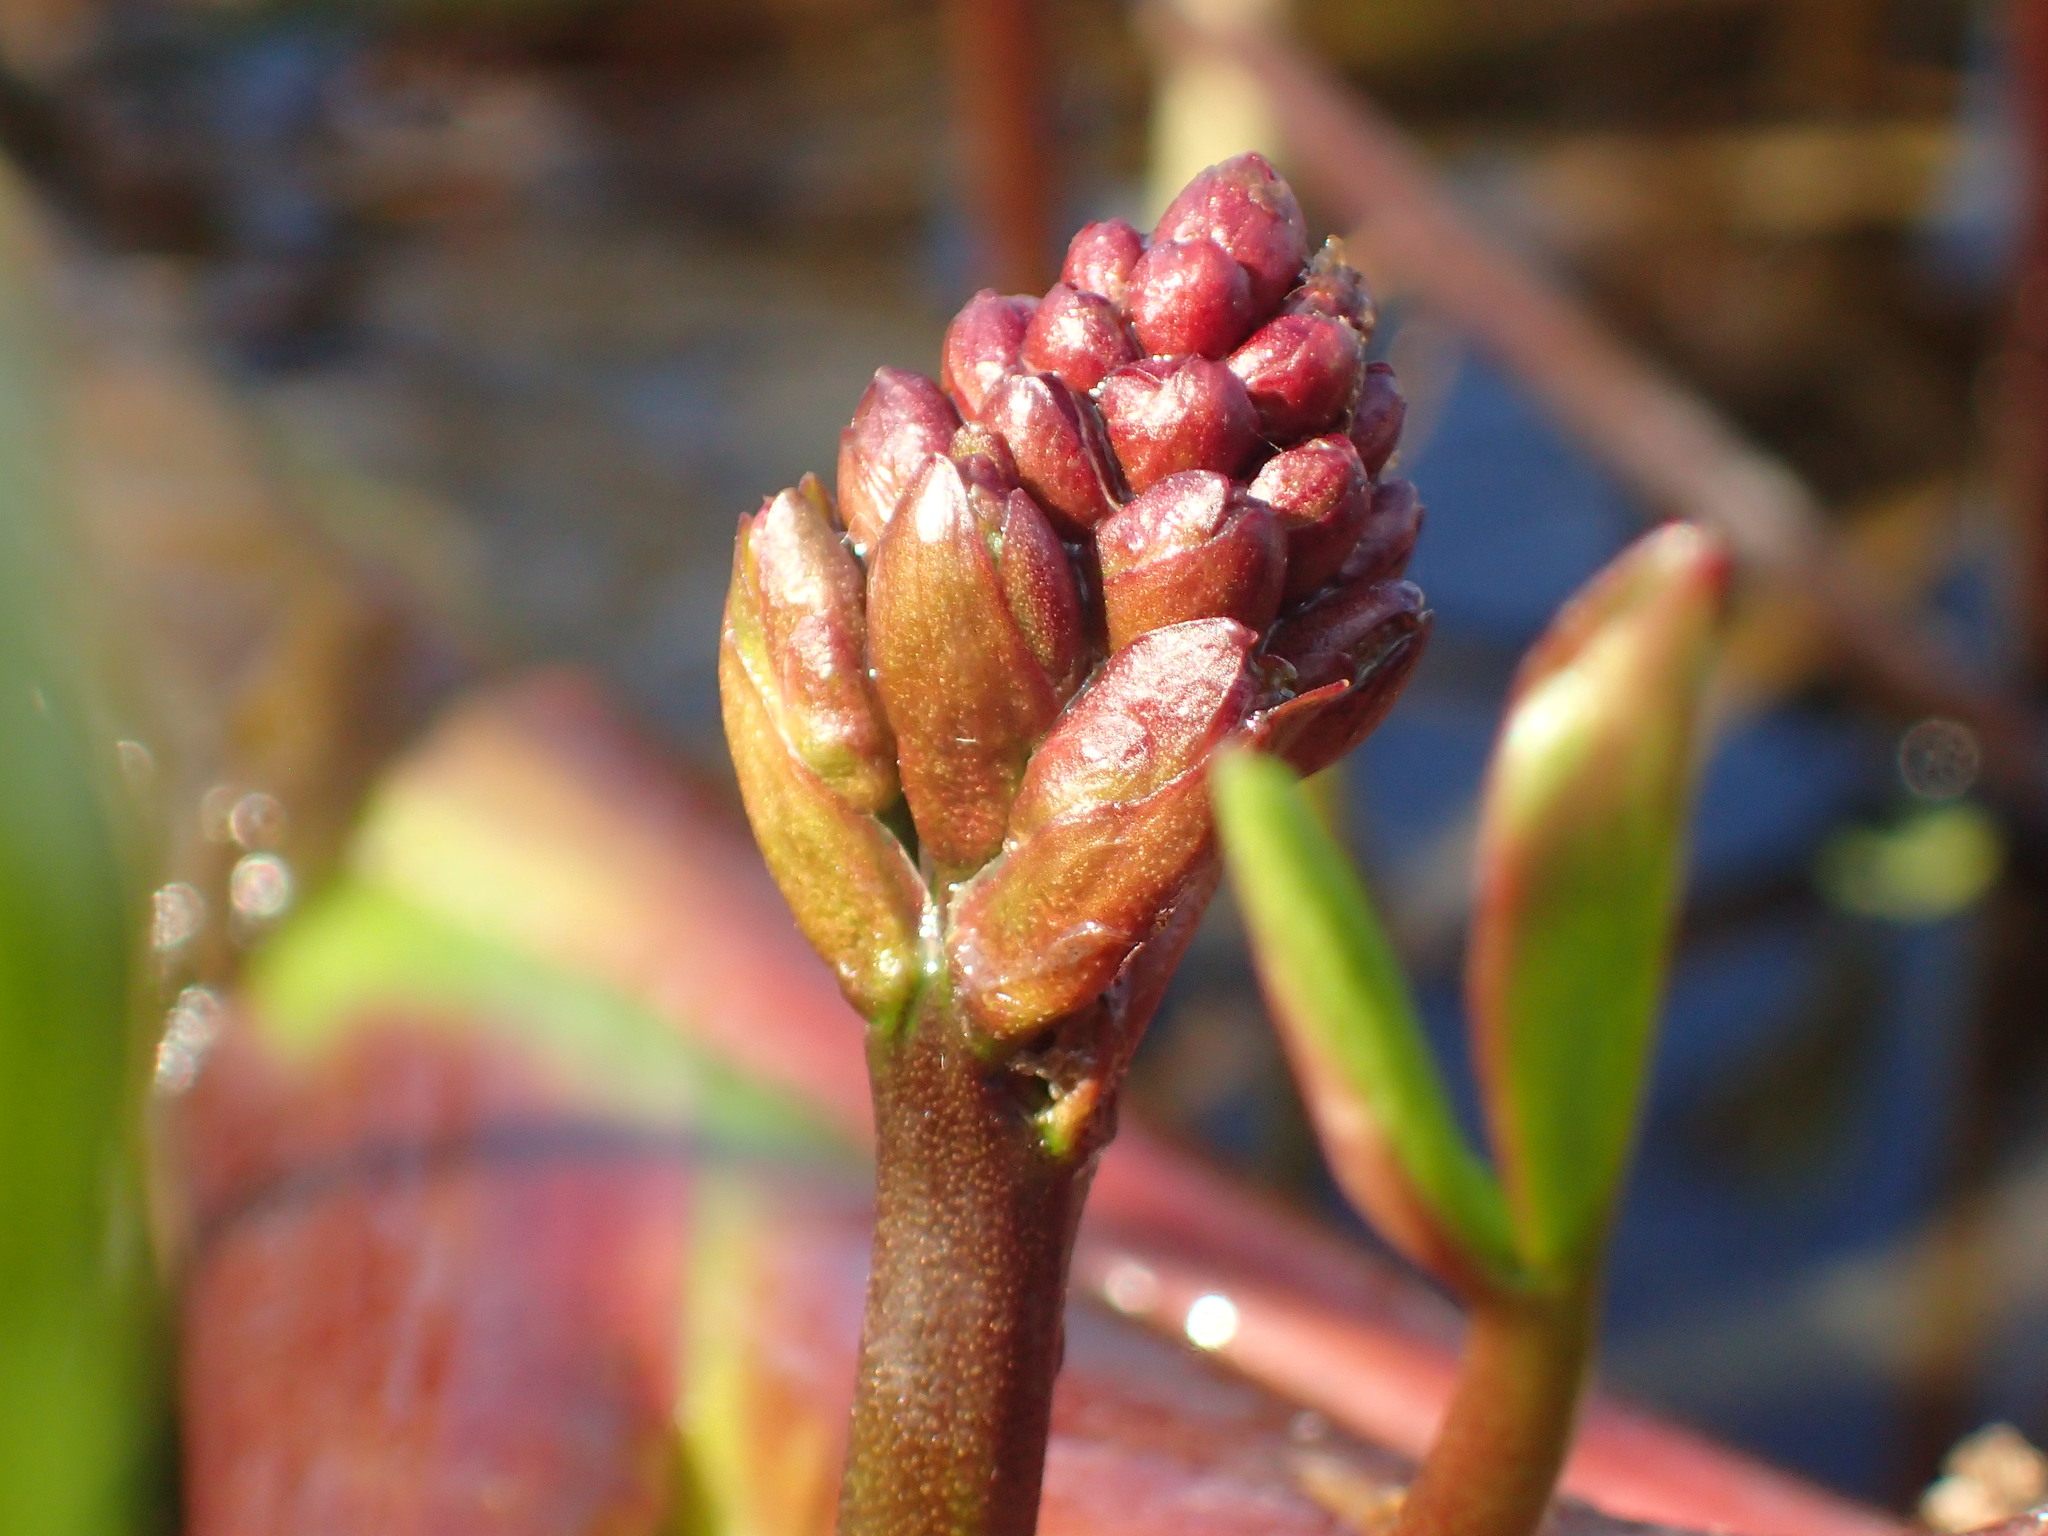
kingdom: Plantae
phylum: Tracheophyta
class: Magnoliopsida
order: Asterales
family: Menyanthaceae
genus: Menyanthes
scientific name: Menyanthes trifoliata
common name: Bogbean
